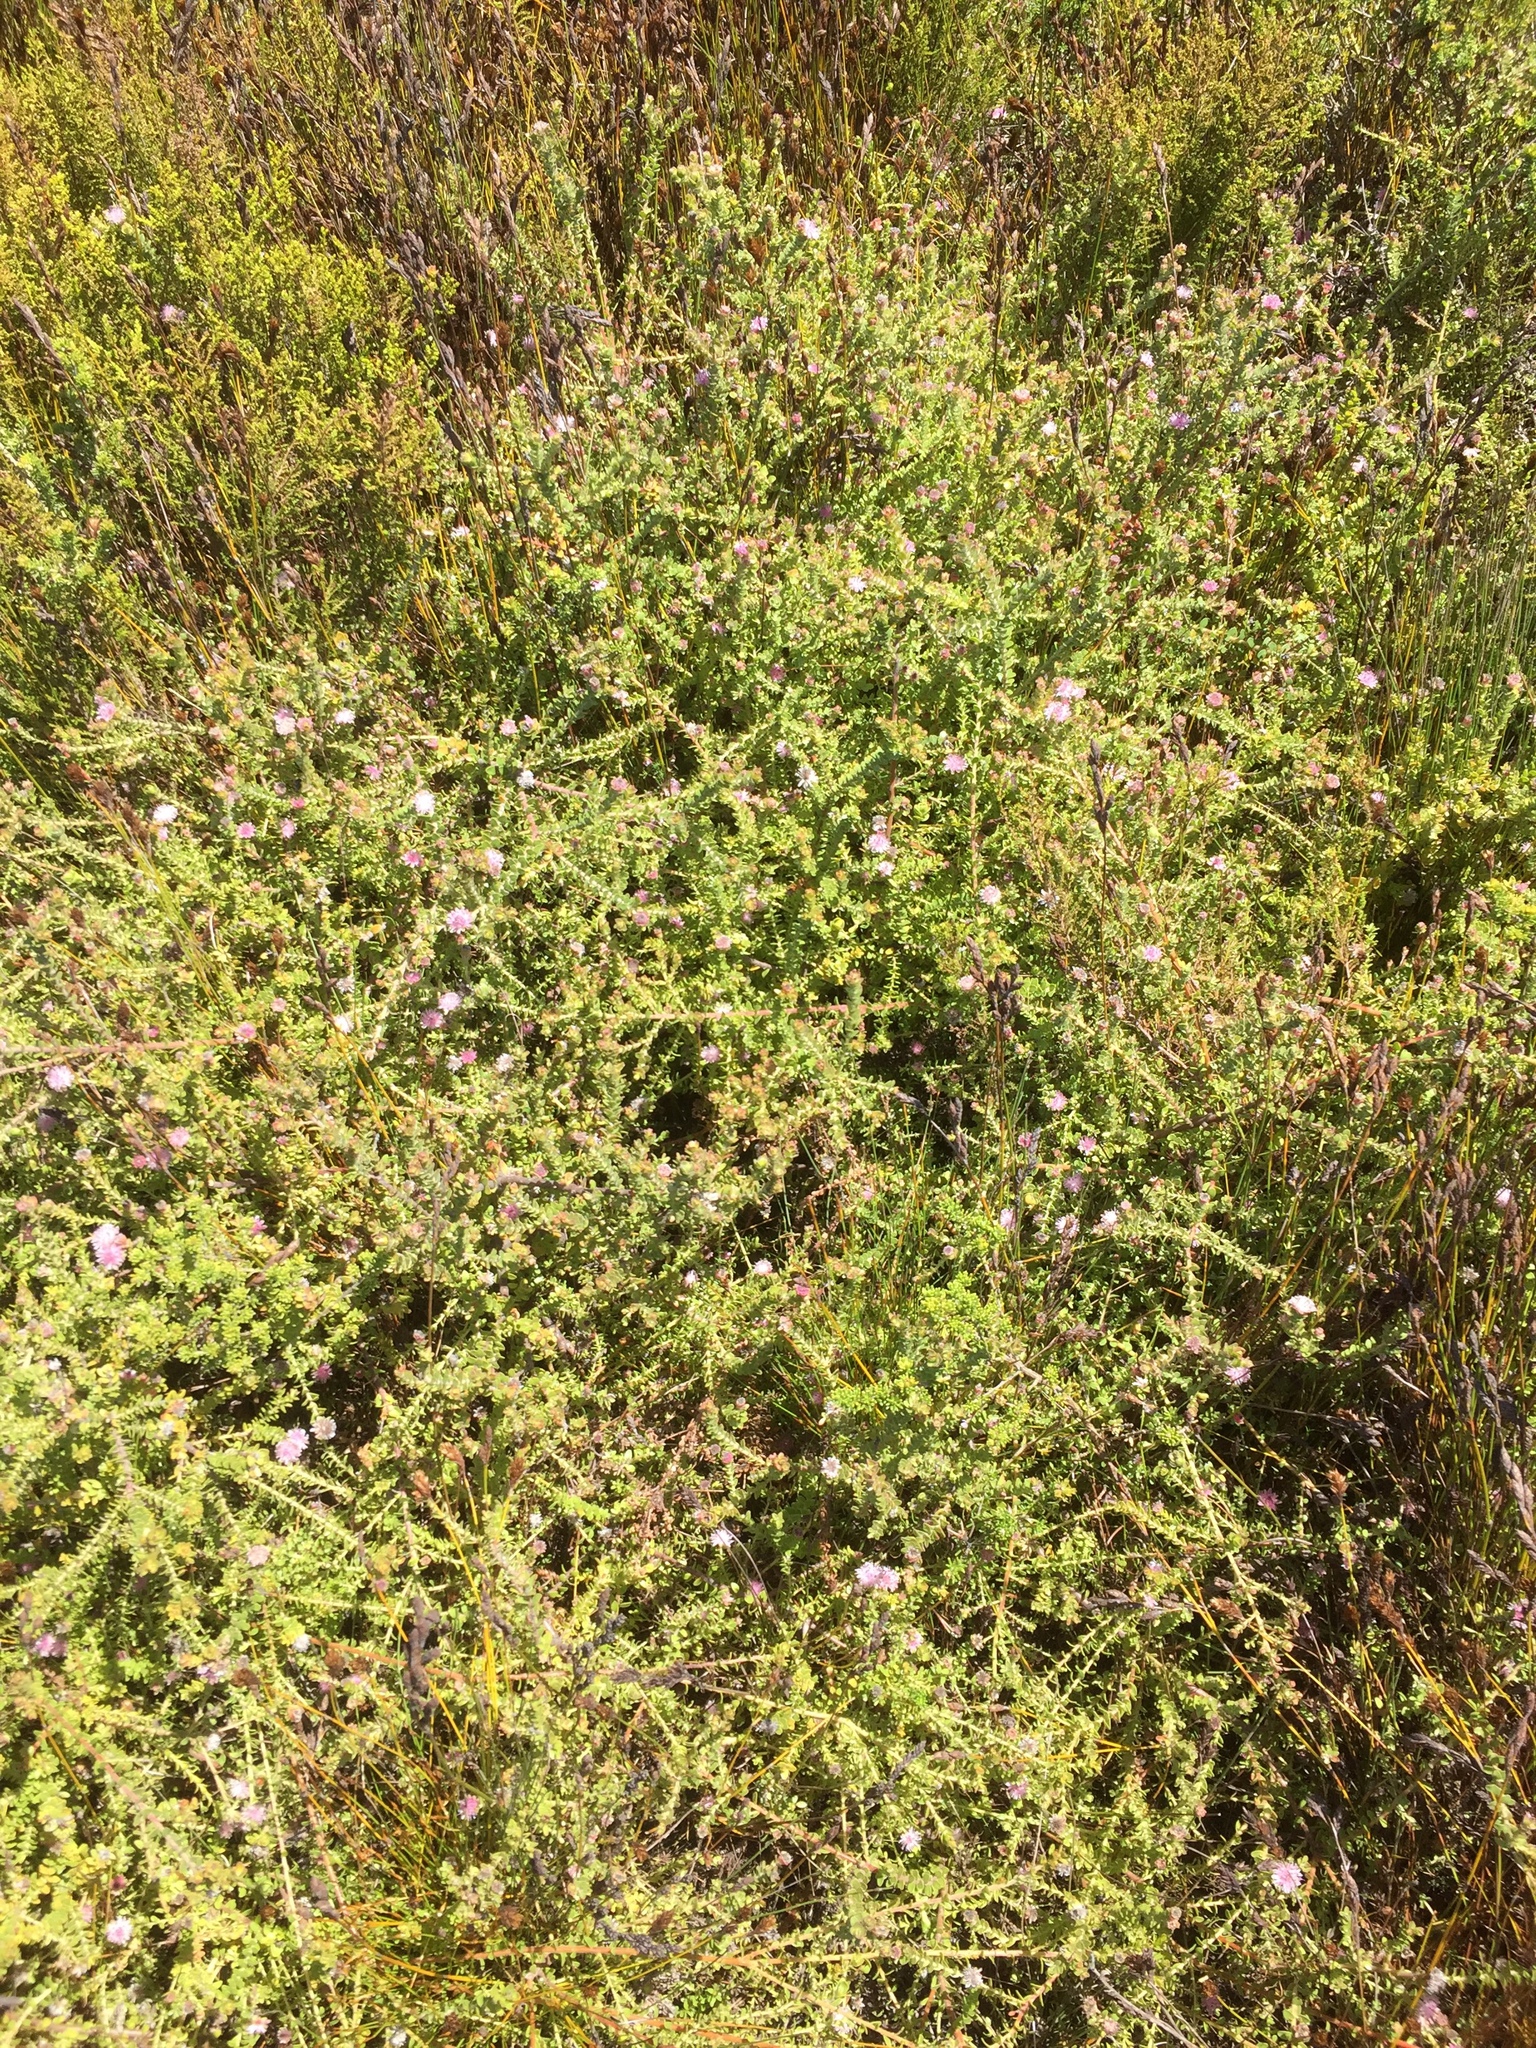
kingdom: Plantae
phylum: Tracheophyta
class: Magnoliopsida
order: Proteales
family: Proteaceae
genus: Diastella
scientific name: Diastella divaricata
